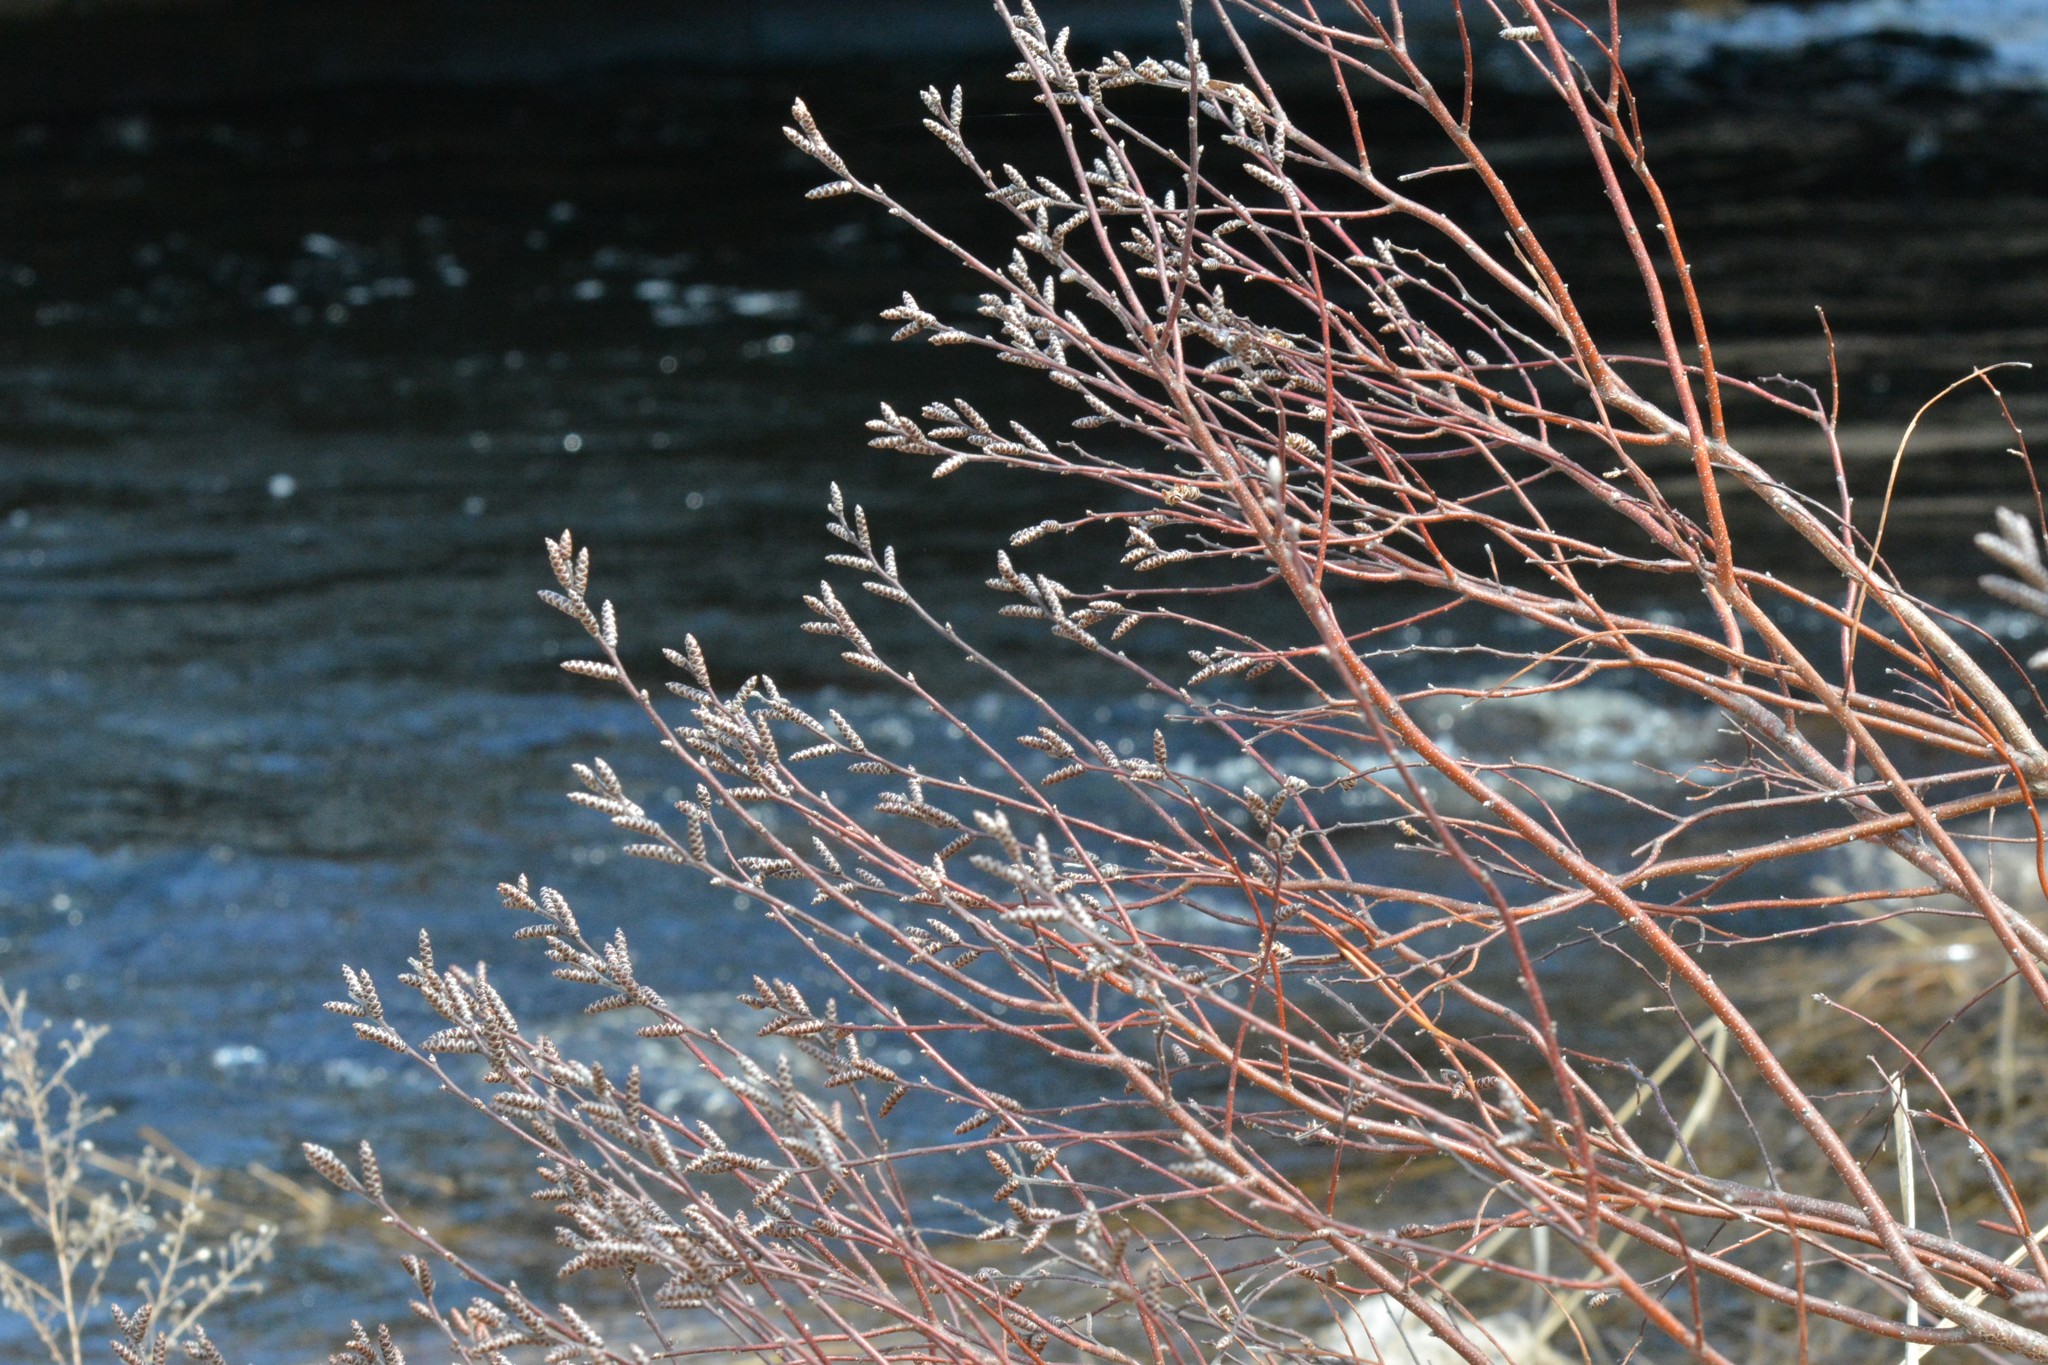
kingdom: Plantae
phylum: Tracheophyta
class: Magnoliopsida
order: Fagales
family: Myricaceae
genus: Myrica
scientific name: Myrica gale
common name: Sweet gale
